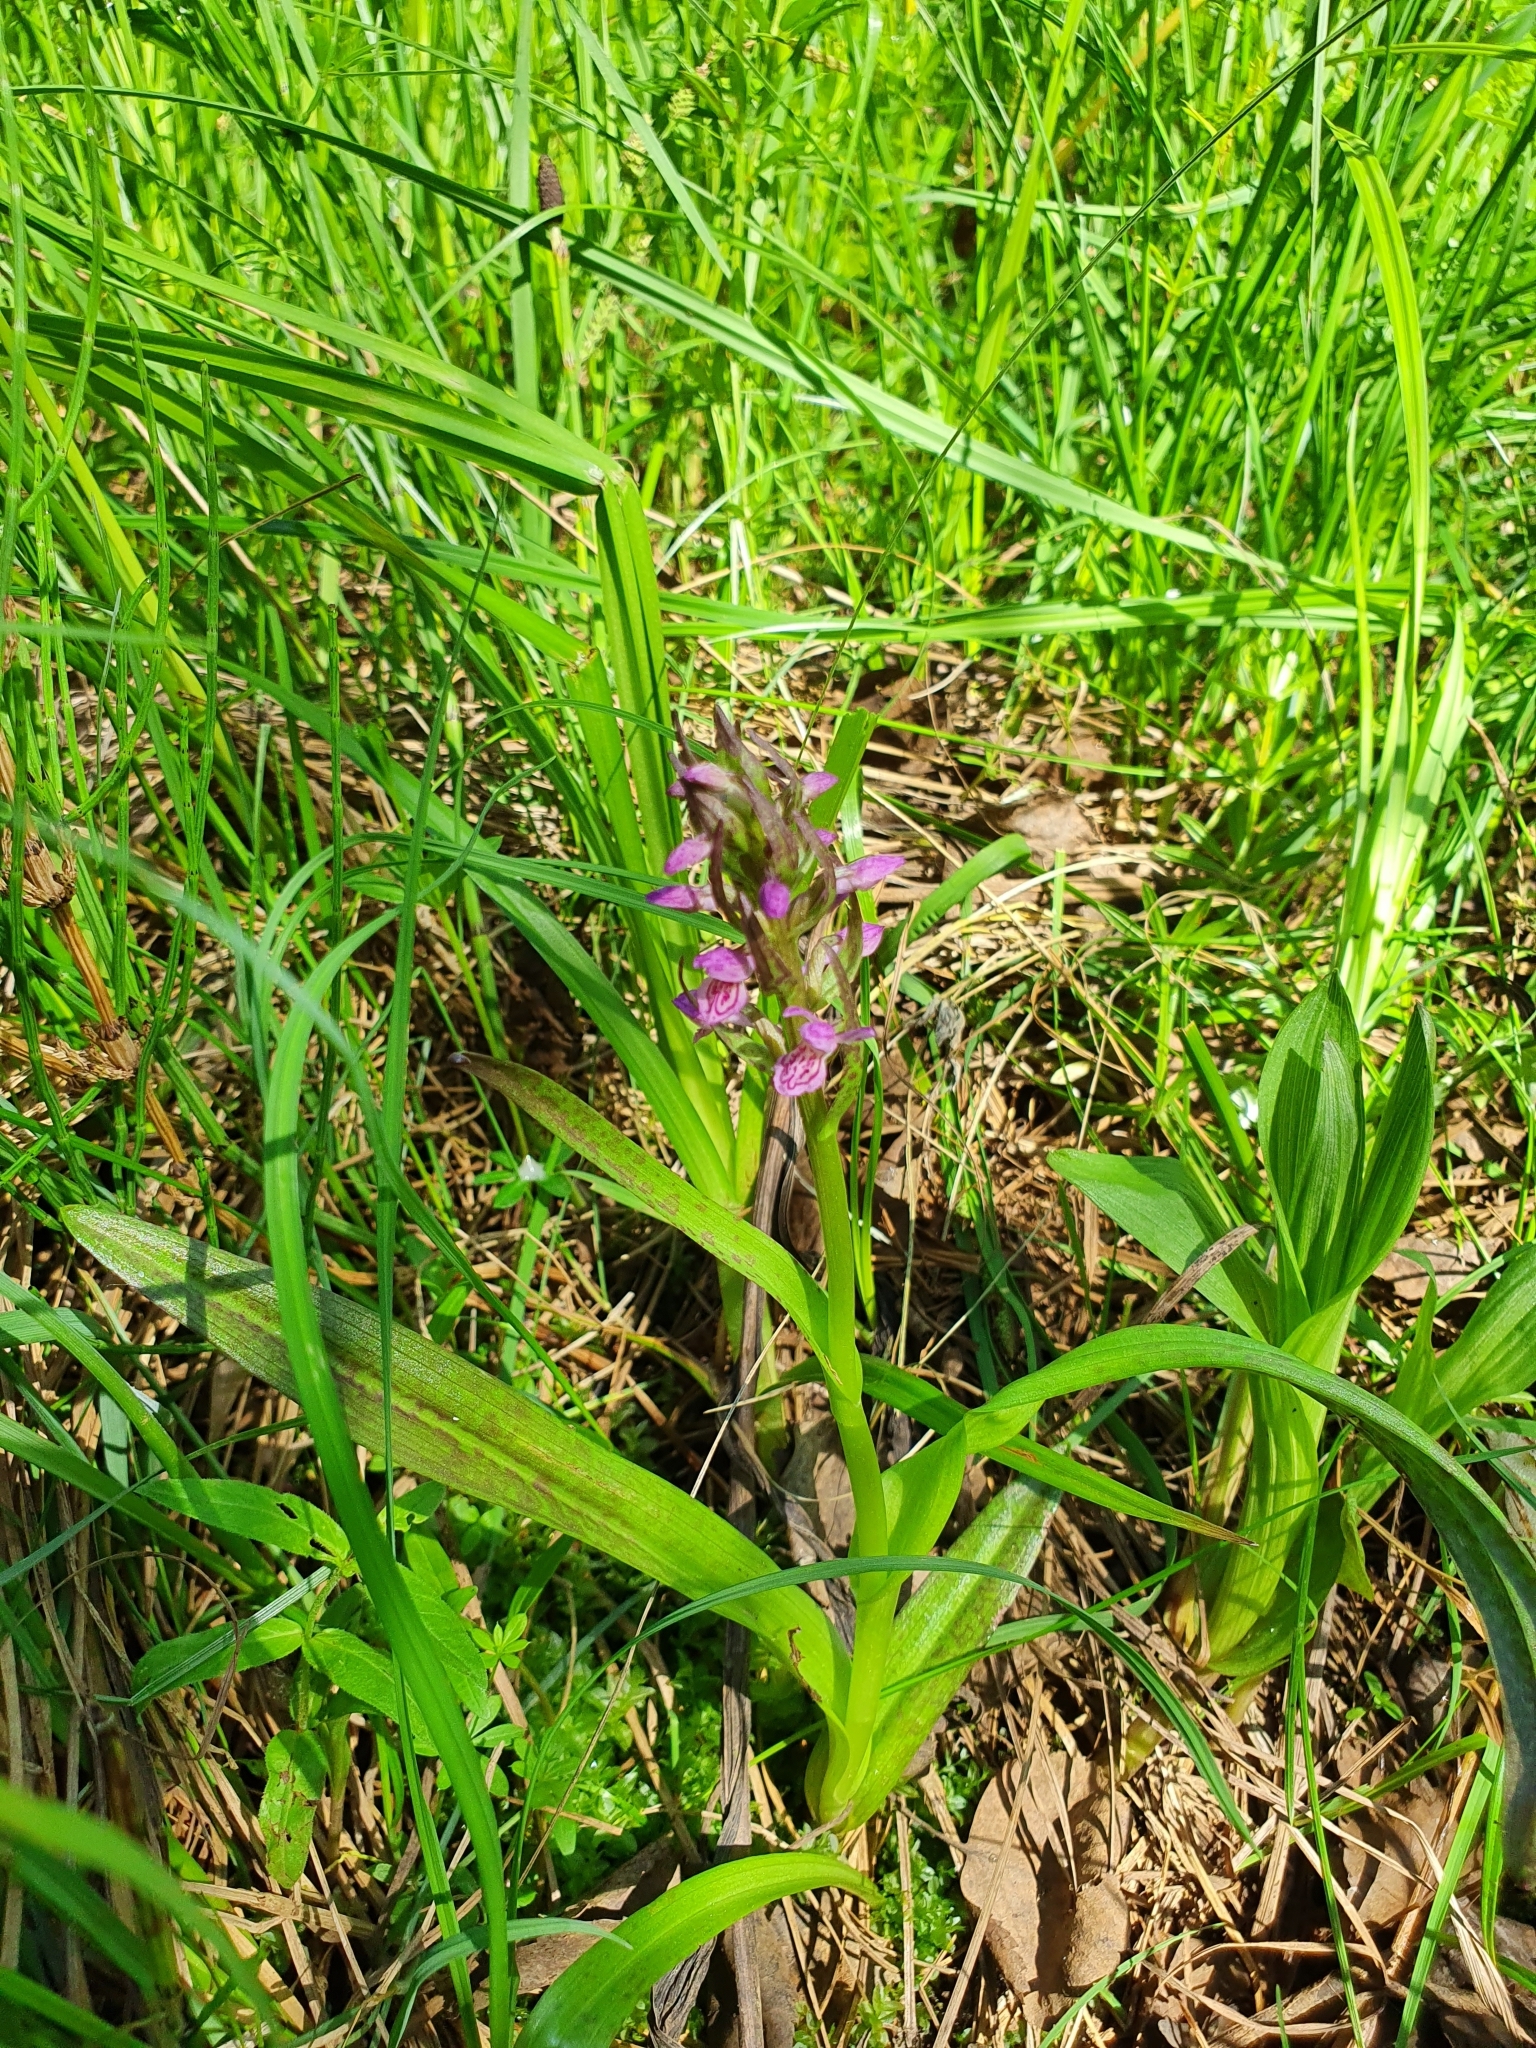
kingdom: Plantae
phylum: Tracheophyta
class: Liliopsida
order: Asparagales
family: Orchidaceae
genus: Dactylorhiza
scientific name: Dactylorhiza incarnata
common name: Early marsh-orchid
